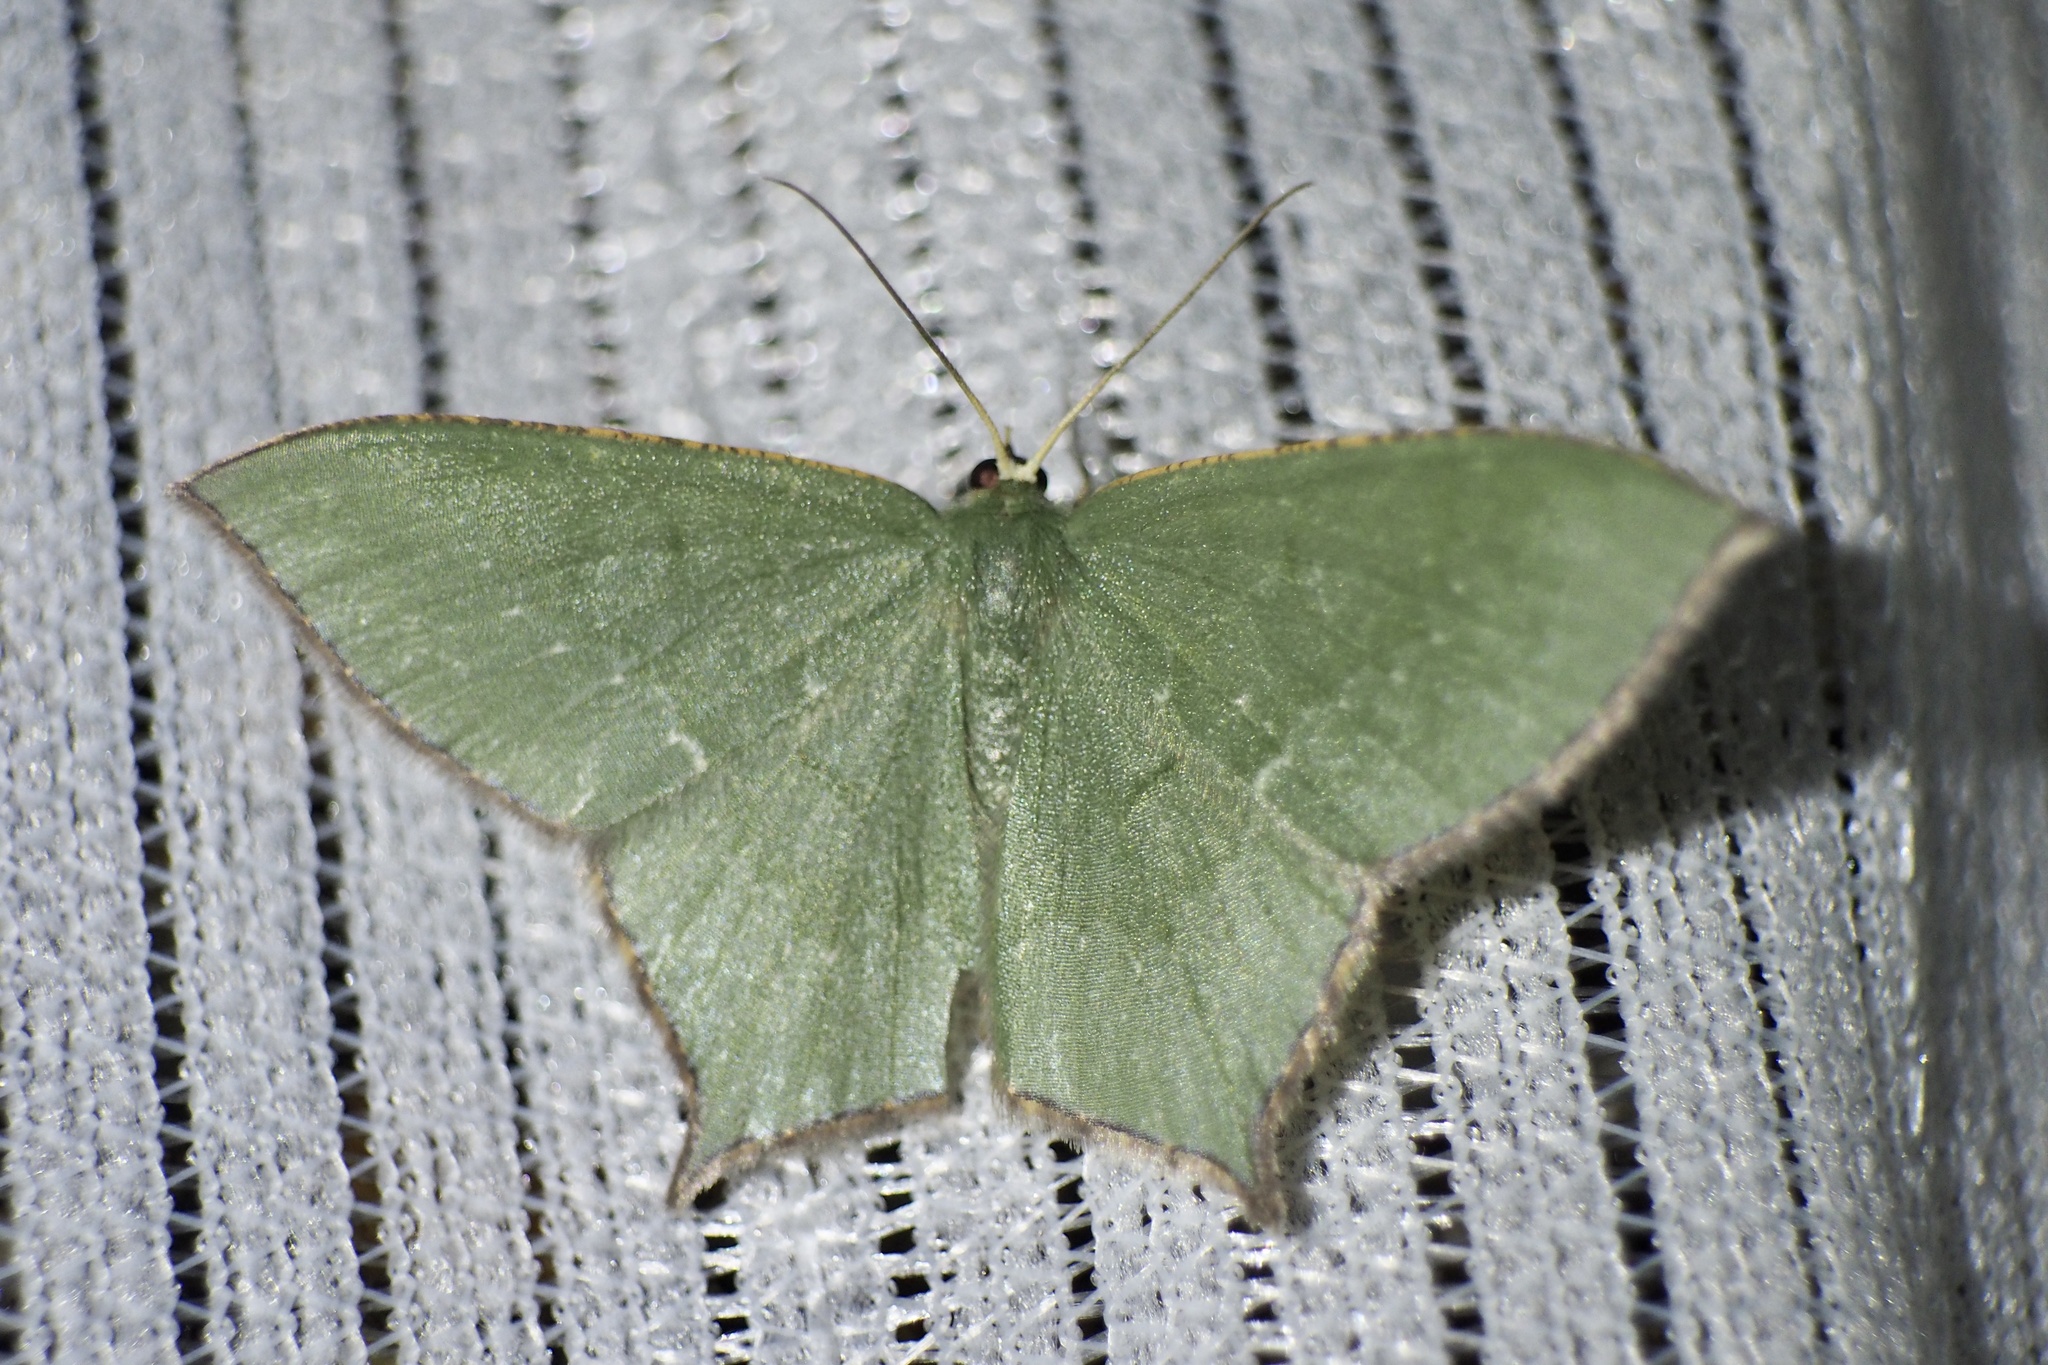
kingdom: Animalia
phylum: Arthropoda
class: Insecta
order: Lepidoptera
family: Geometridae
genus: Maxates
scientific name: Maxates protrusa
